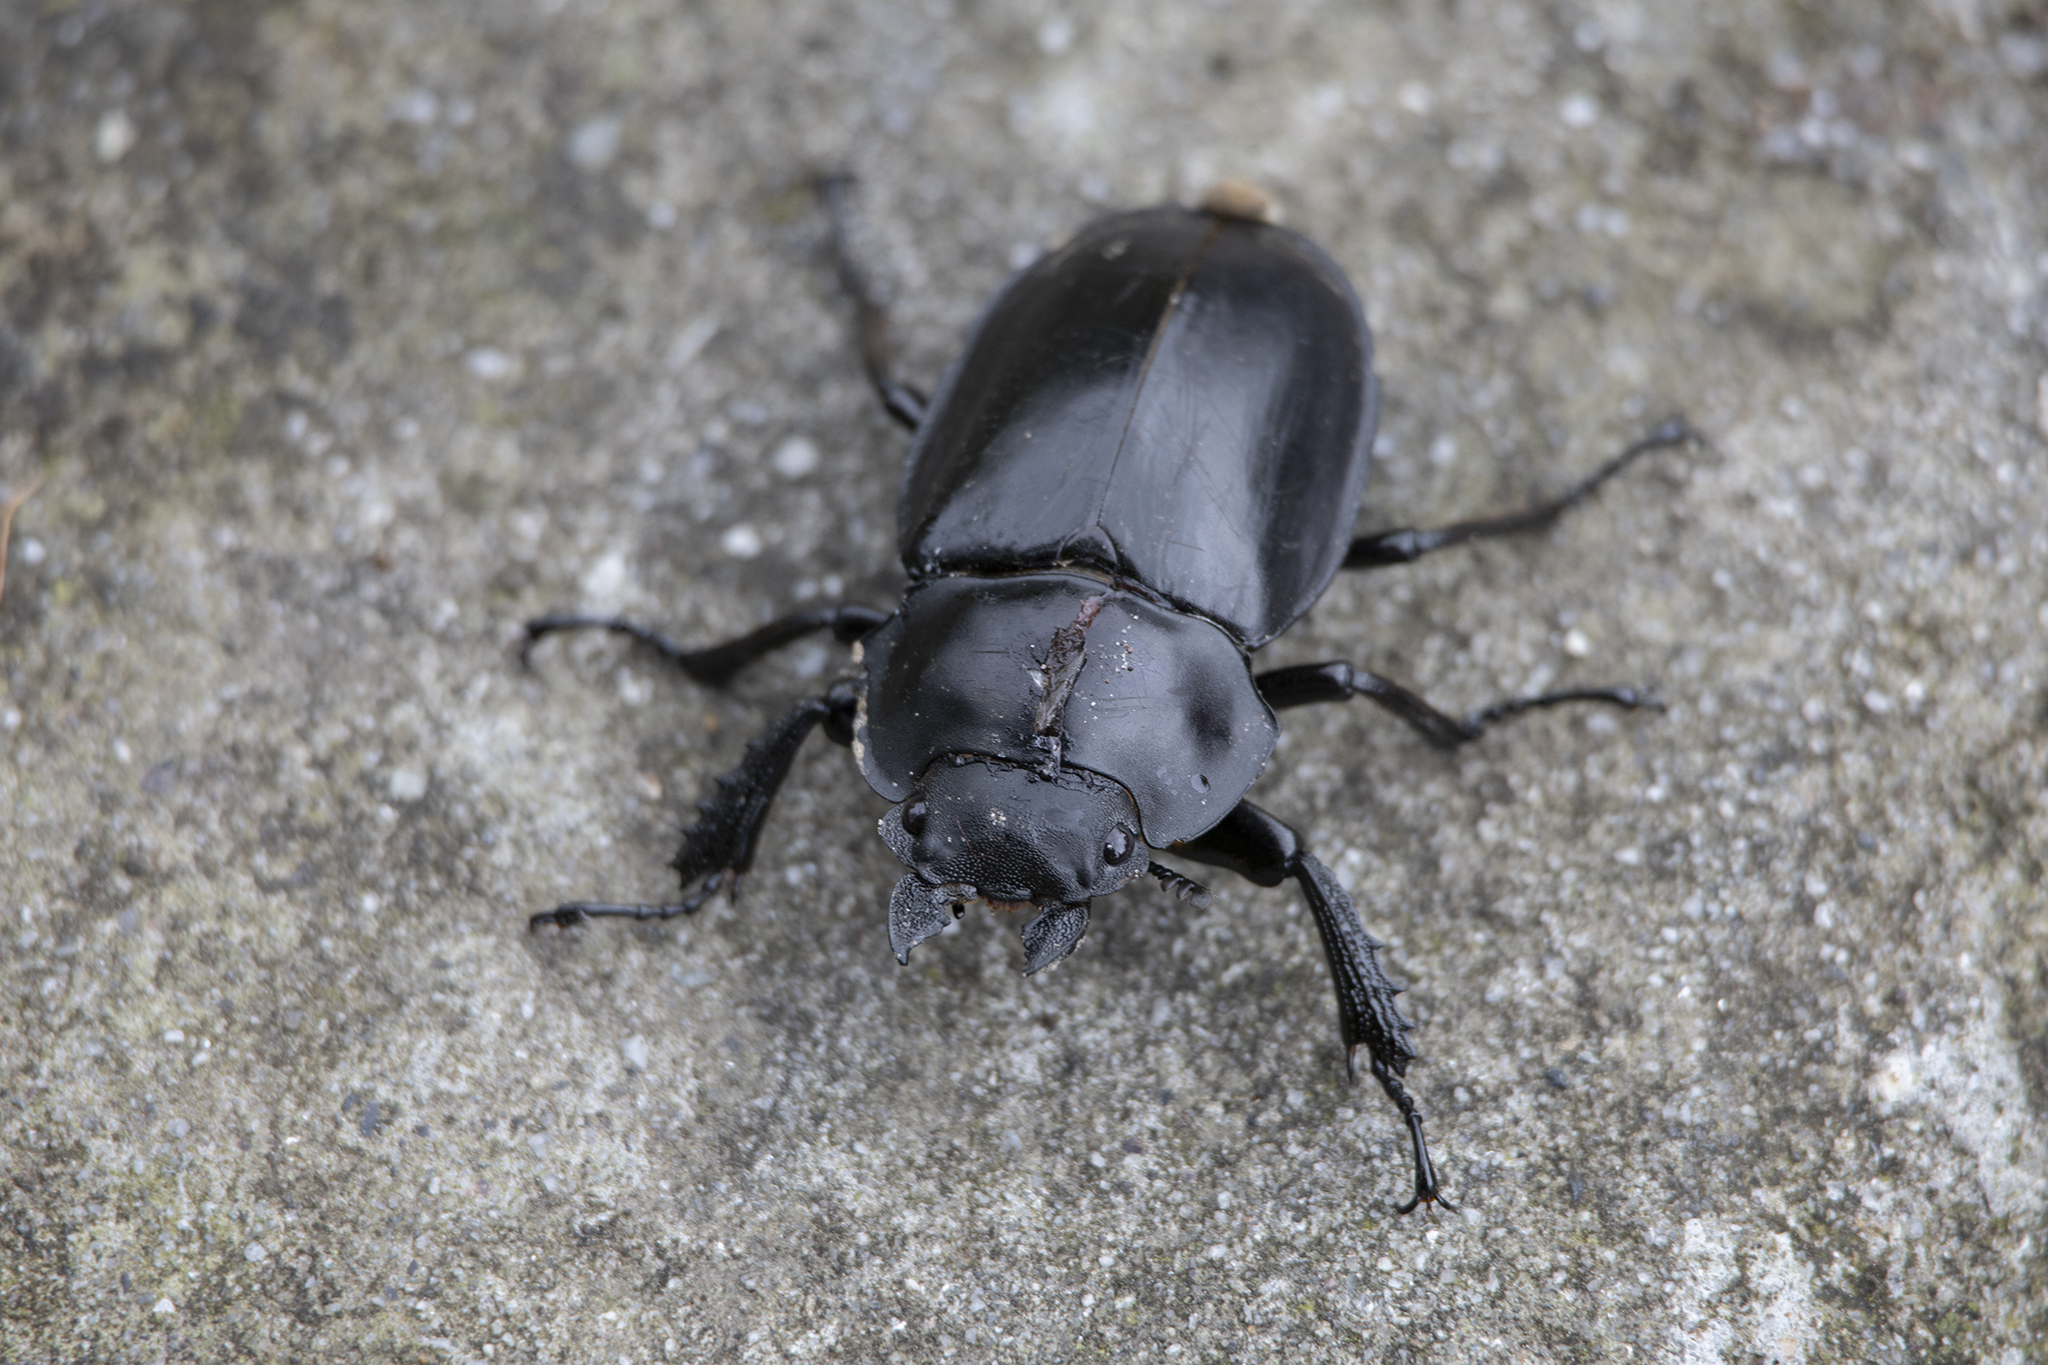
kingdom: Animalia
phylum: Arthropoda
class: Insecta
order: Coleoptera
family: Lucanidae
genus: Odontolabis
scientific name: Odontolabis siva
